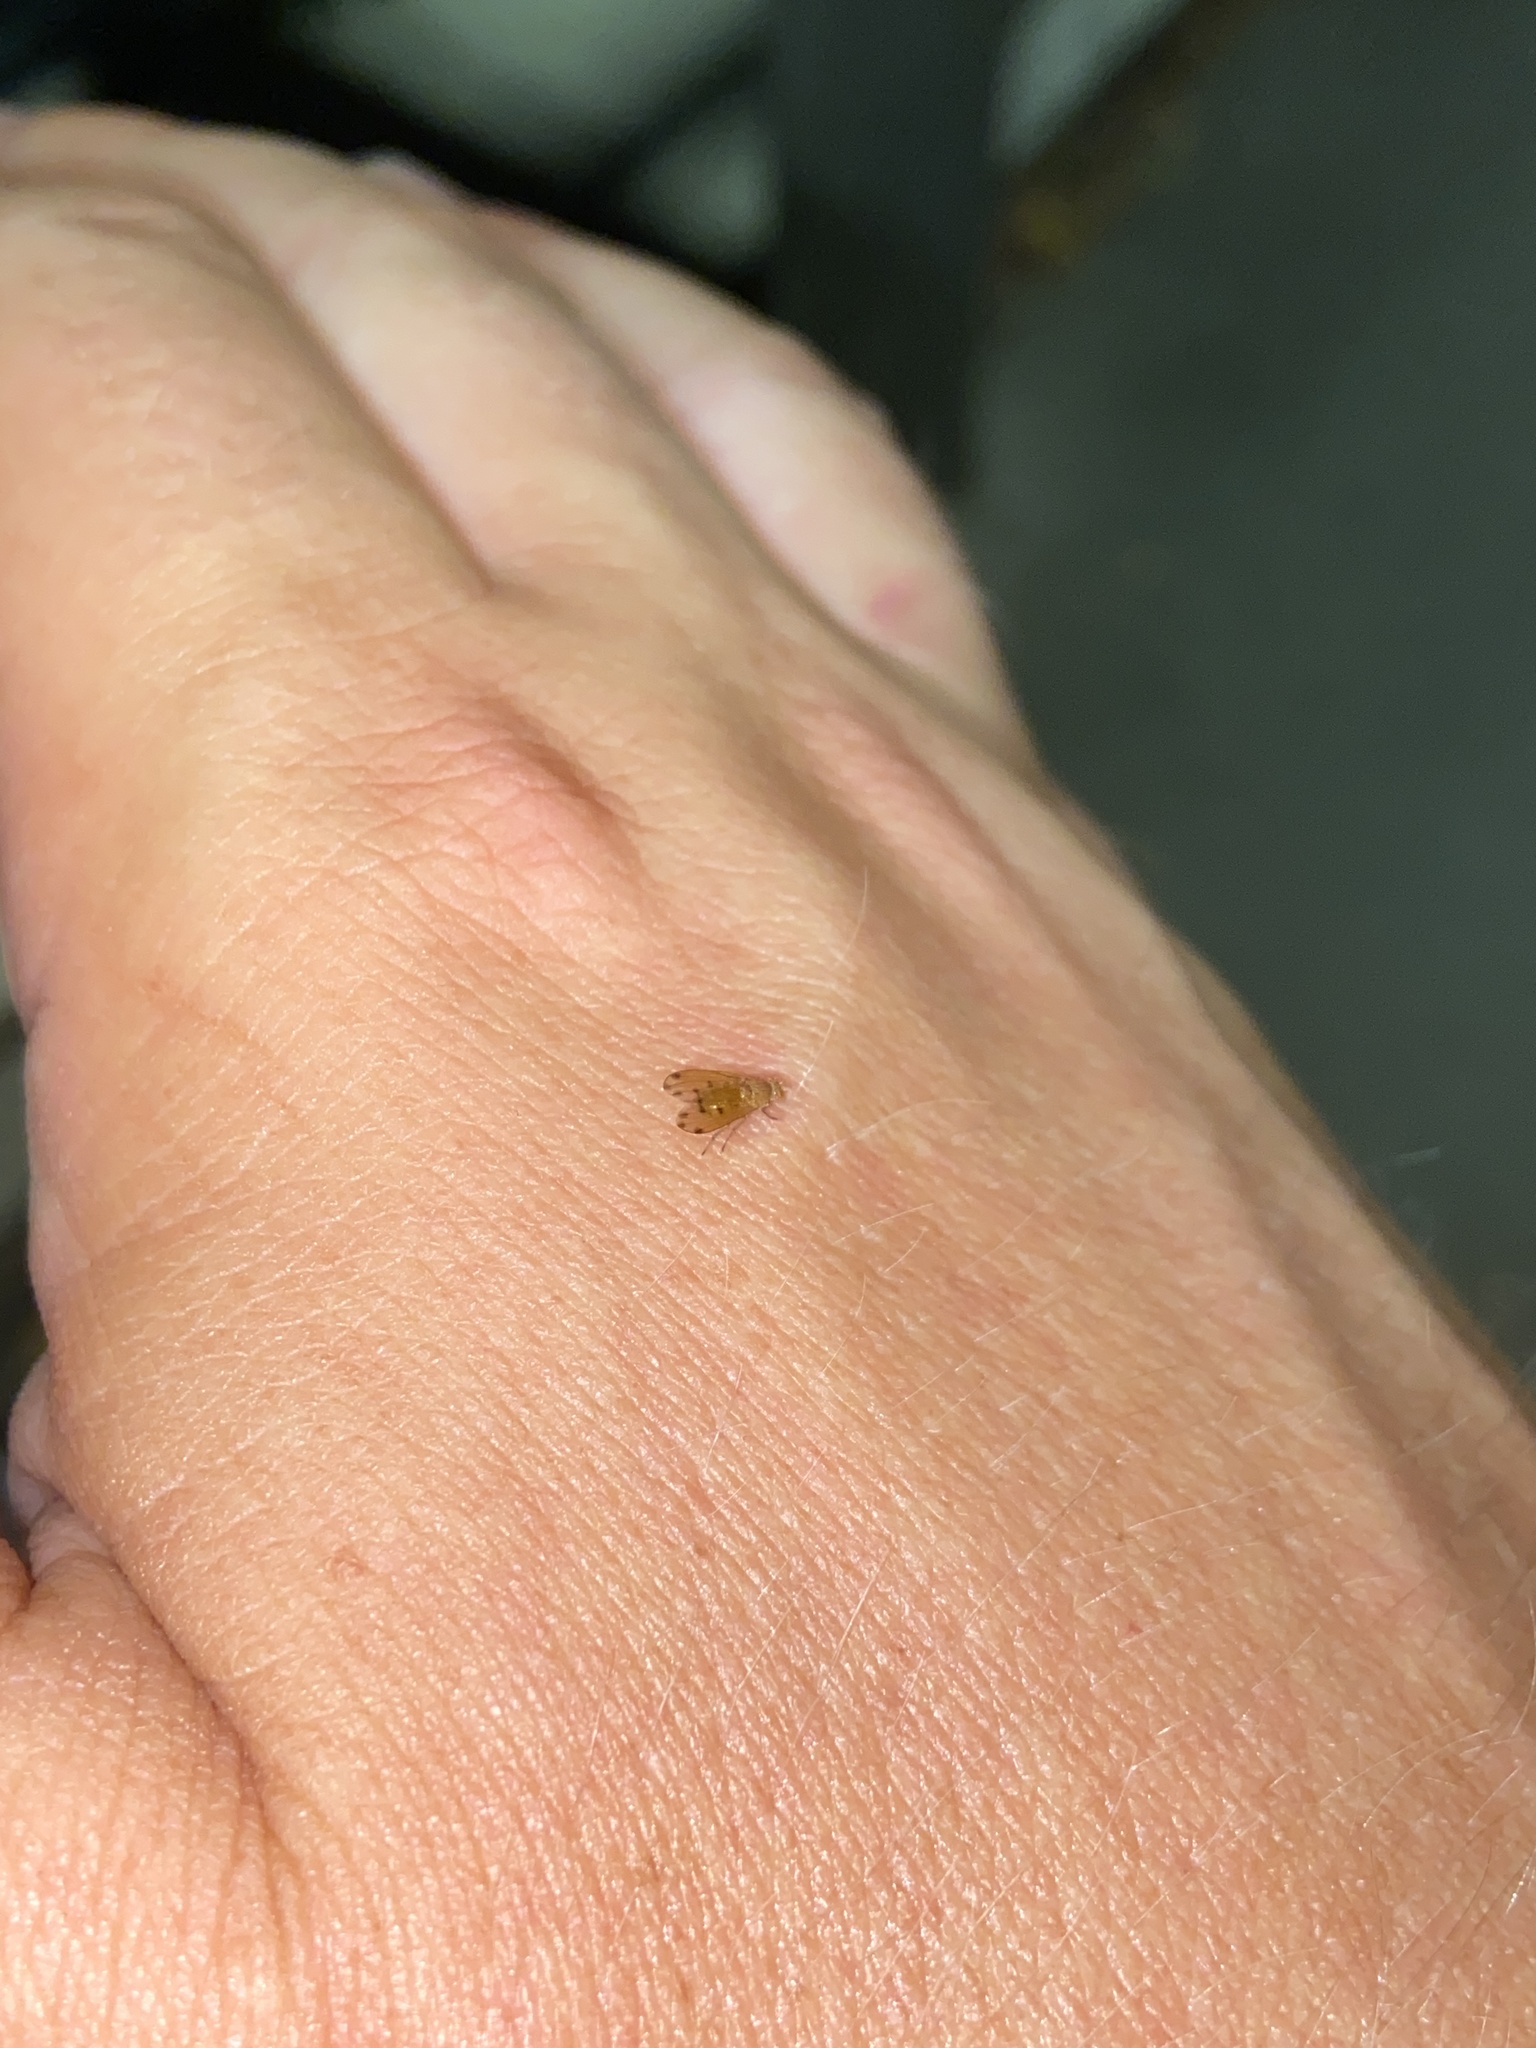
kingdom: Animalia
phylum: Arthropoda
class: Insecta
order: Diptera
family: Lauxaniidae
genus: Meiosimyza
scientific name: Meiosimyza decempunctata
